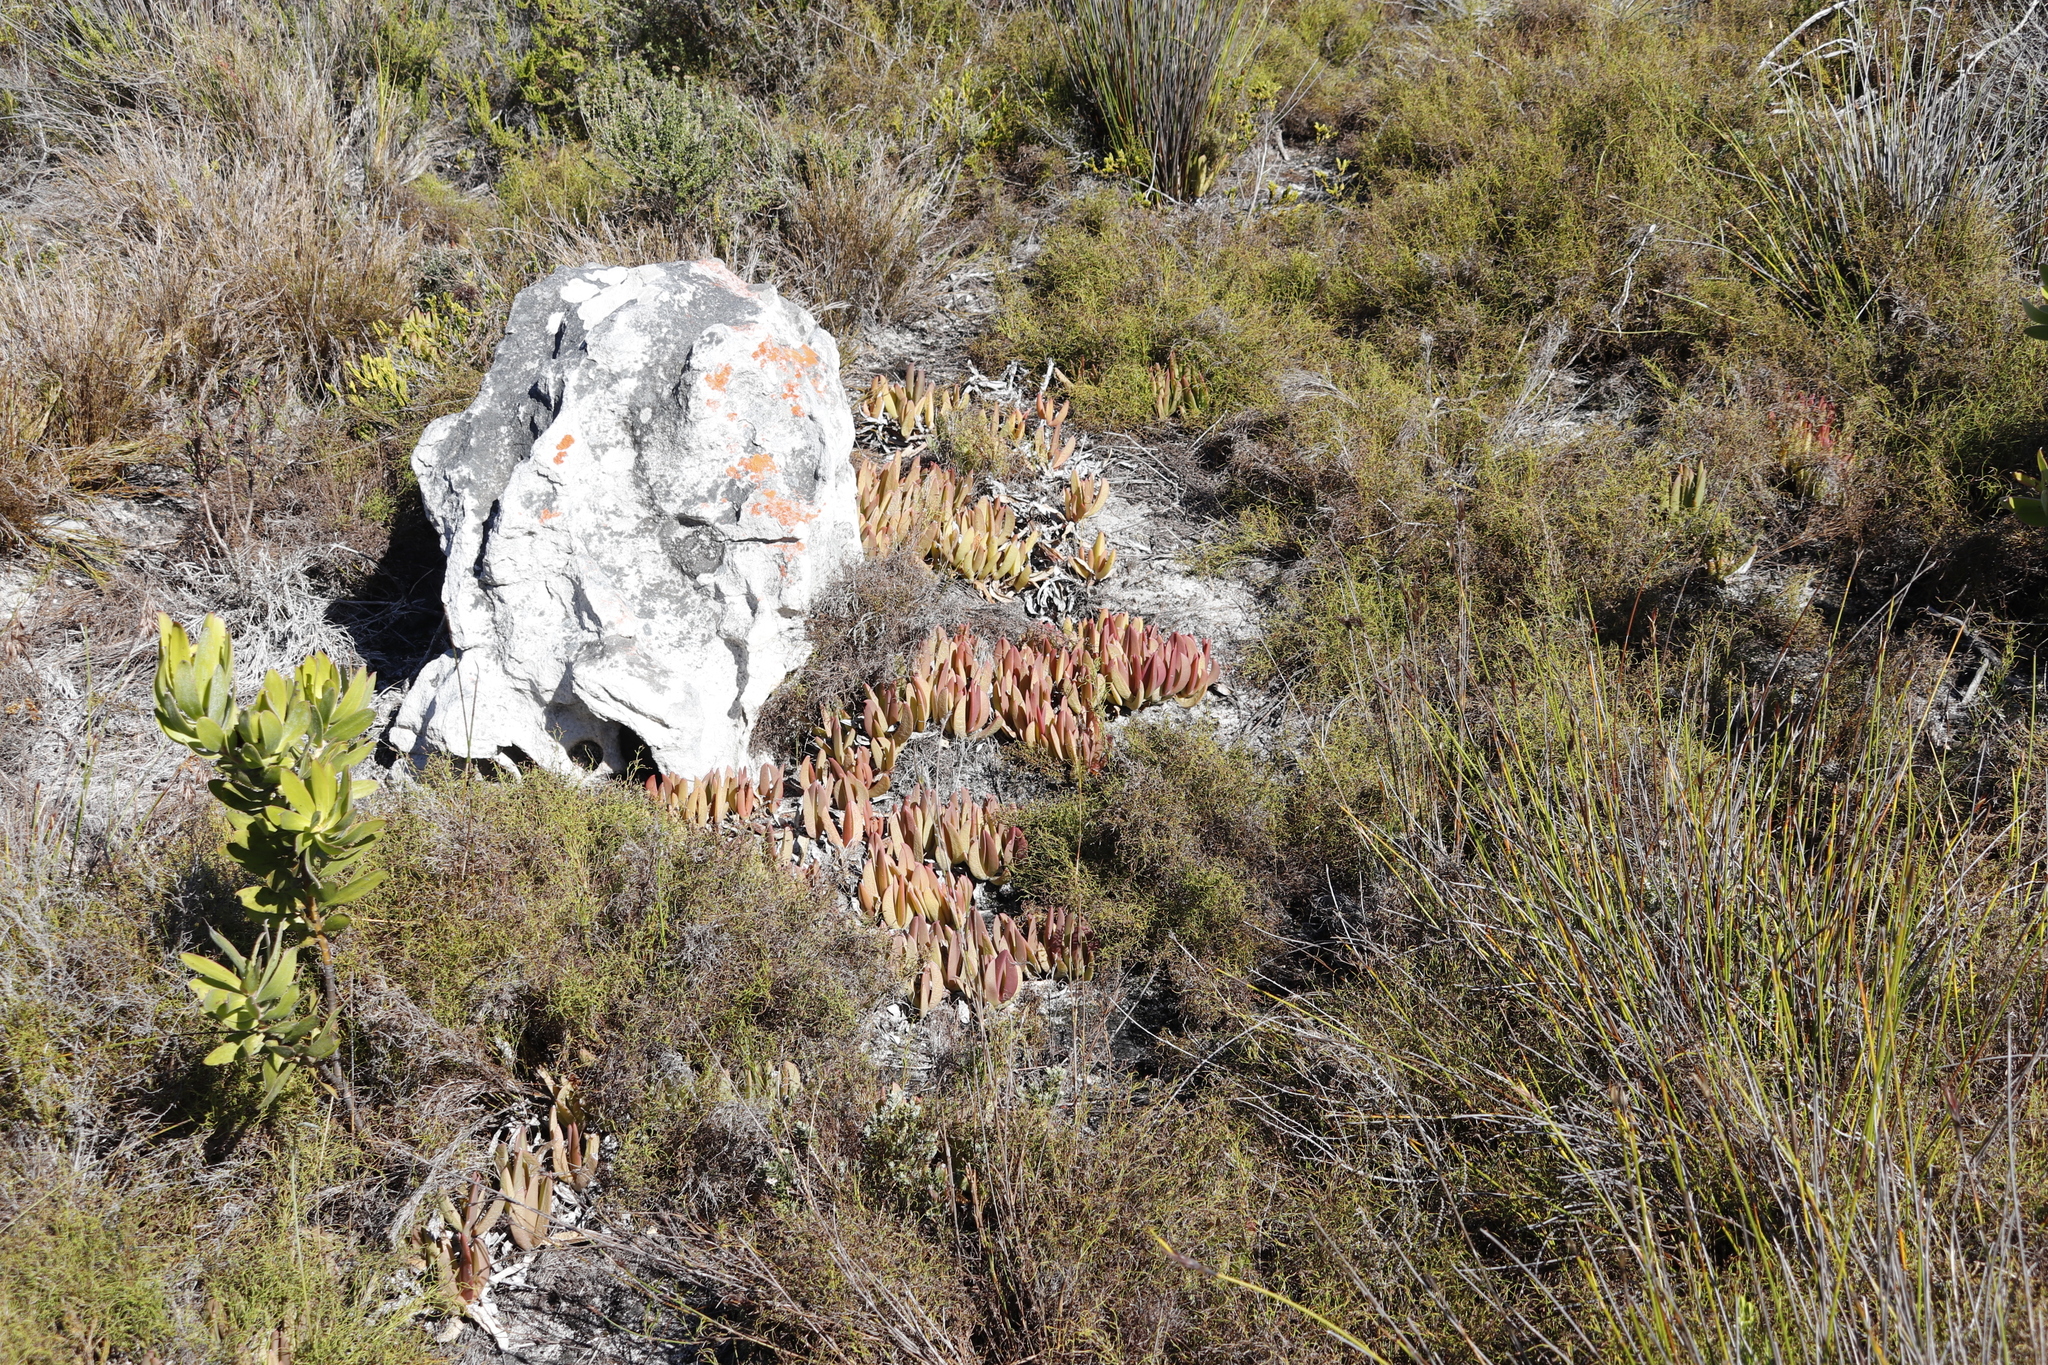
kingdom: Plantae
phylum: Tracheophyta
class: Magnoliopsida
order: Caryophyllales
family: Aizoaceae
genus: Carpobrotus
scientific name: Carpobrotus acinaciformis
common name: Sally-my-handsome
